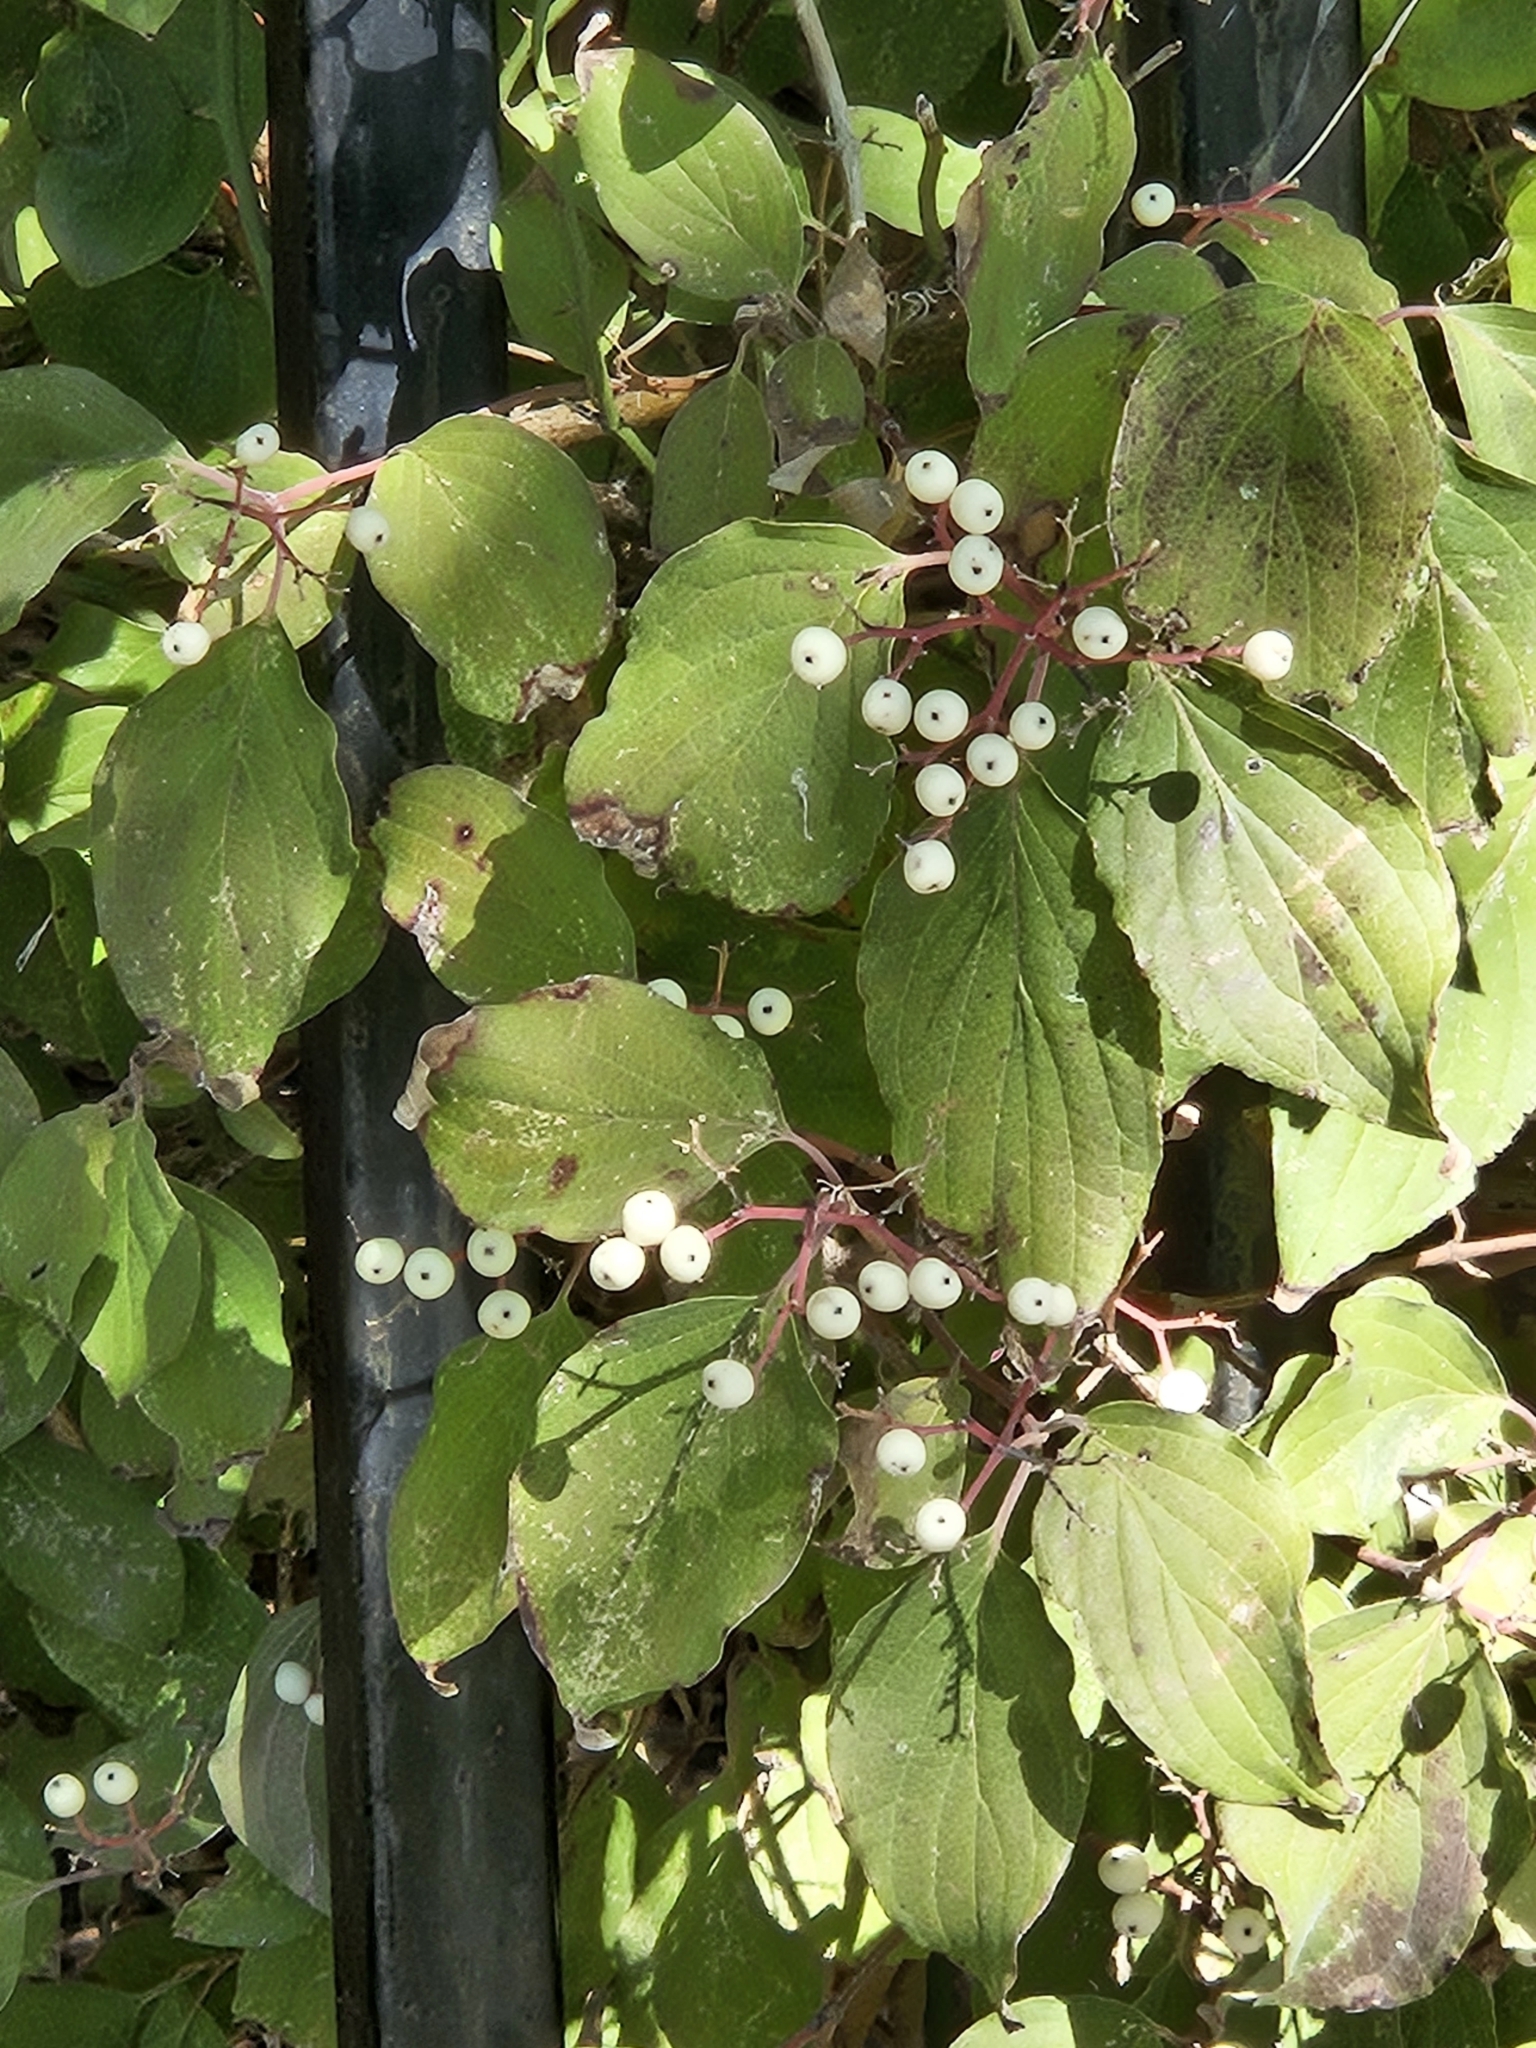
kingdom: Plantae
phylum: Tracheophyta
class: Magnoliopsida
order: Cornales
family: Cornaceae
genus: Cornus
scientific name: Cornus drummondii
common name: Rough-leaf dogwood
